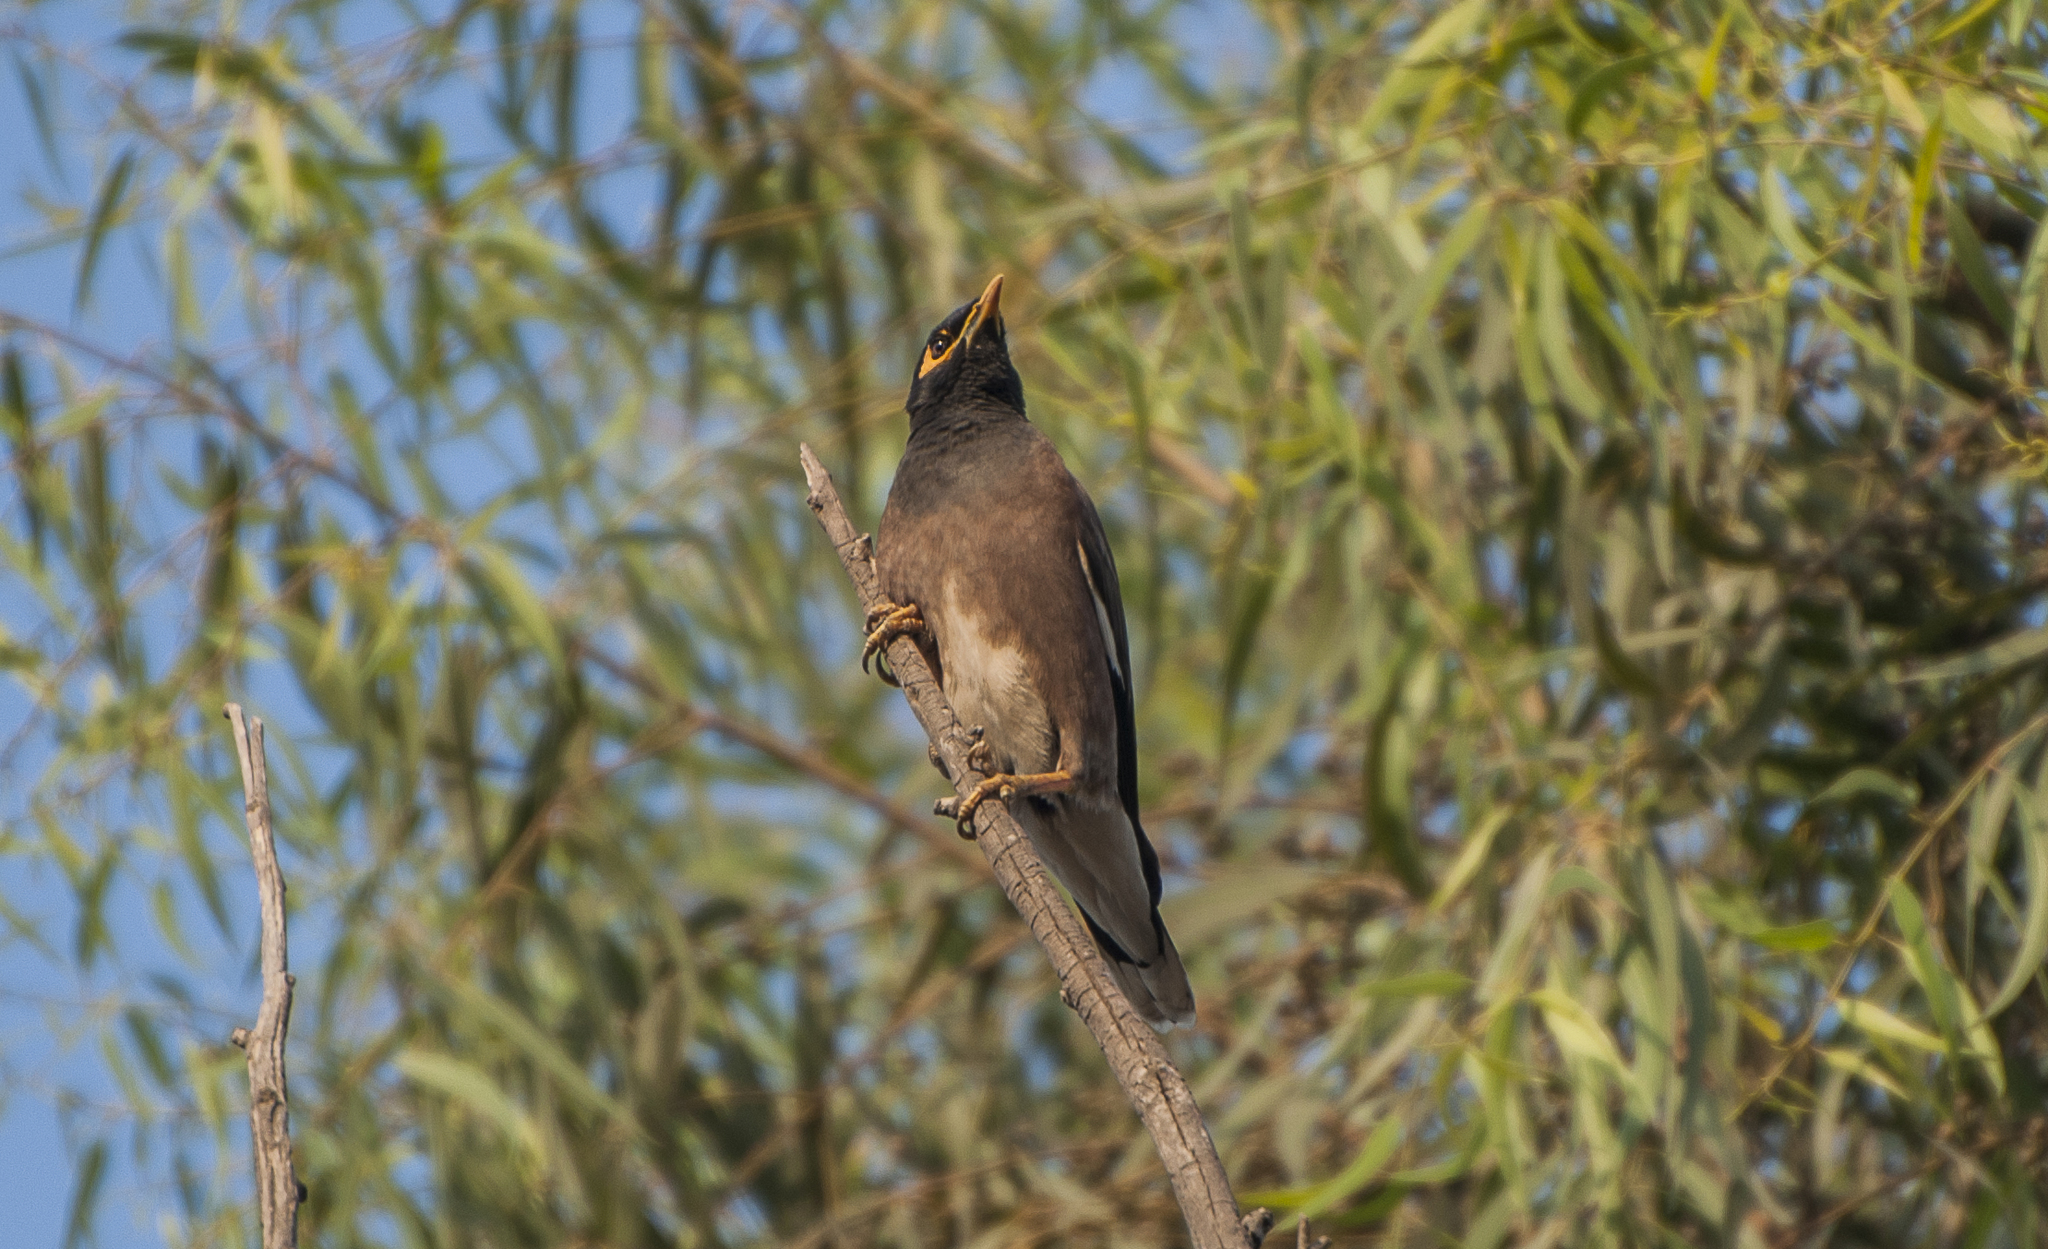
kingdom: Animalia
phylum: Chordata
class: Aves
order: Passeriformes
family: Sturnidae
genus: Acridotheres
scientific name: Acridotheres tristis
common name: Common myna
